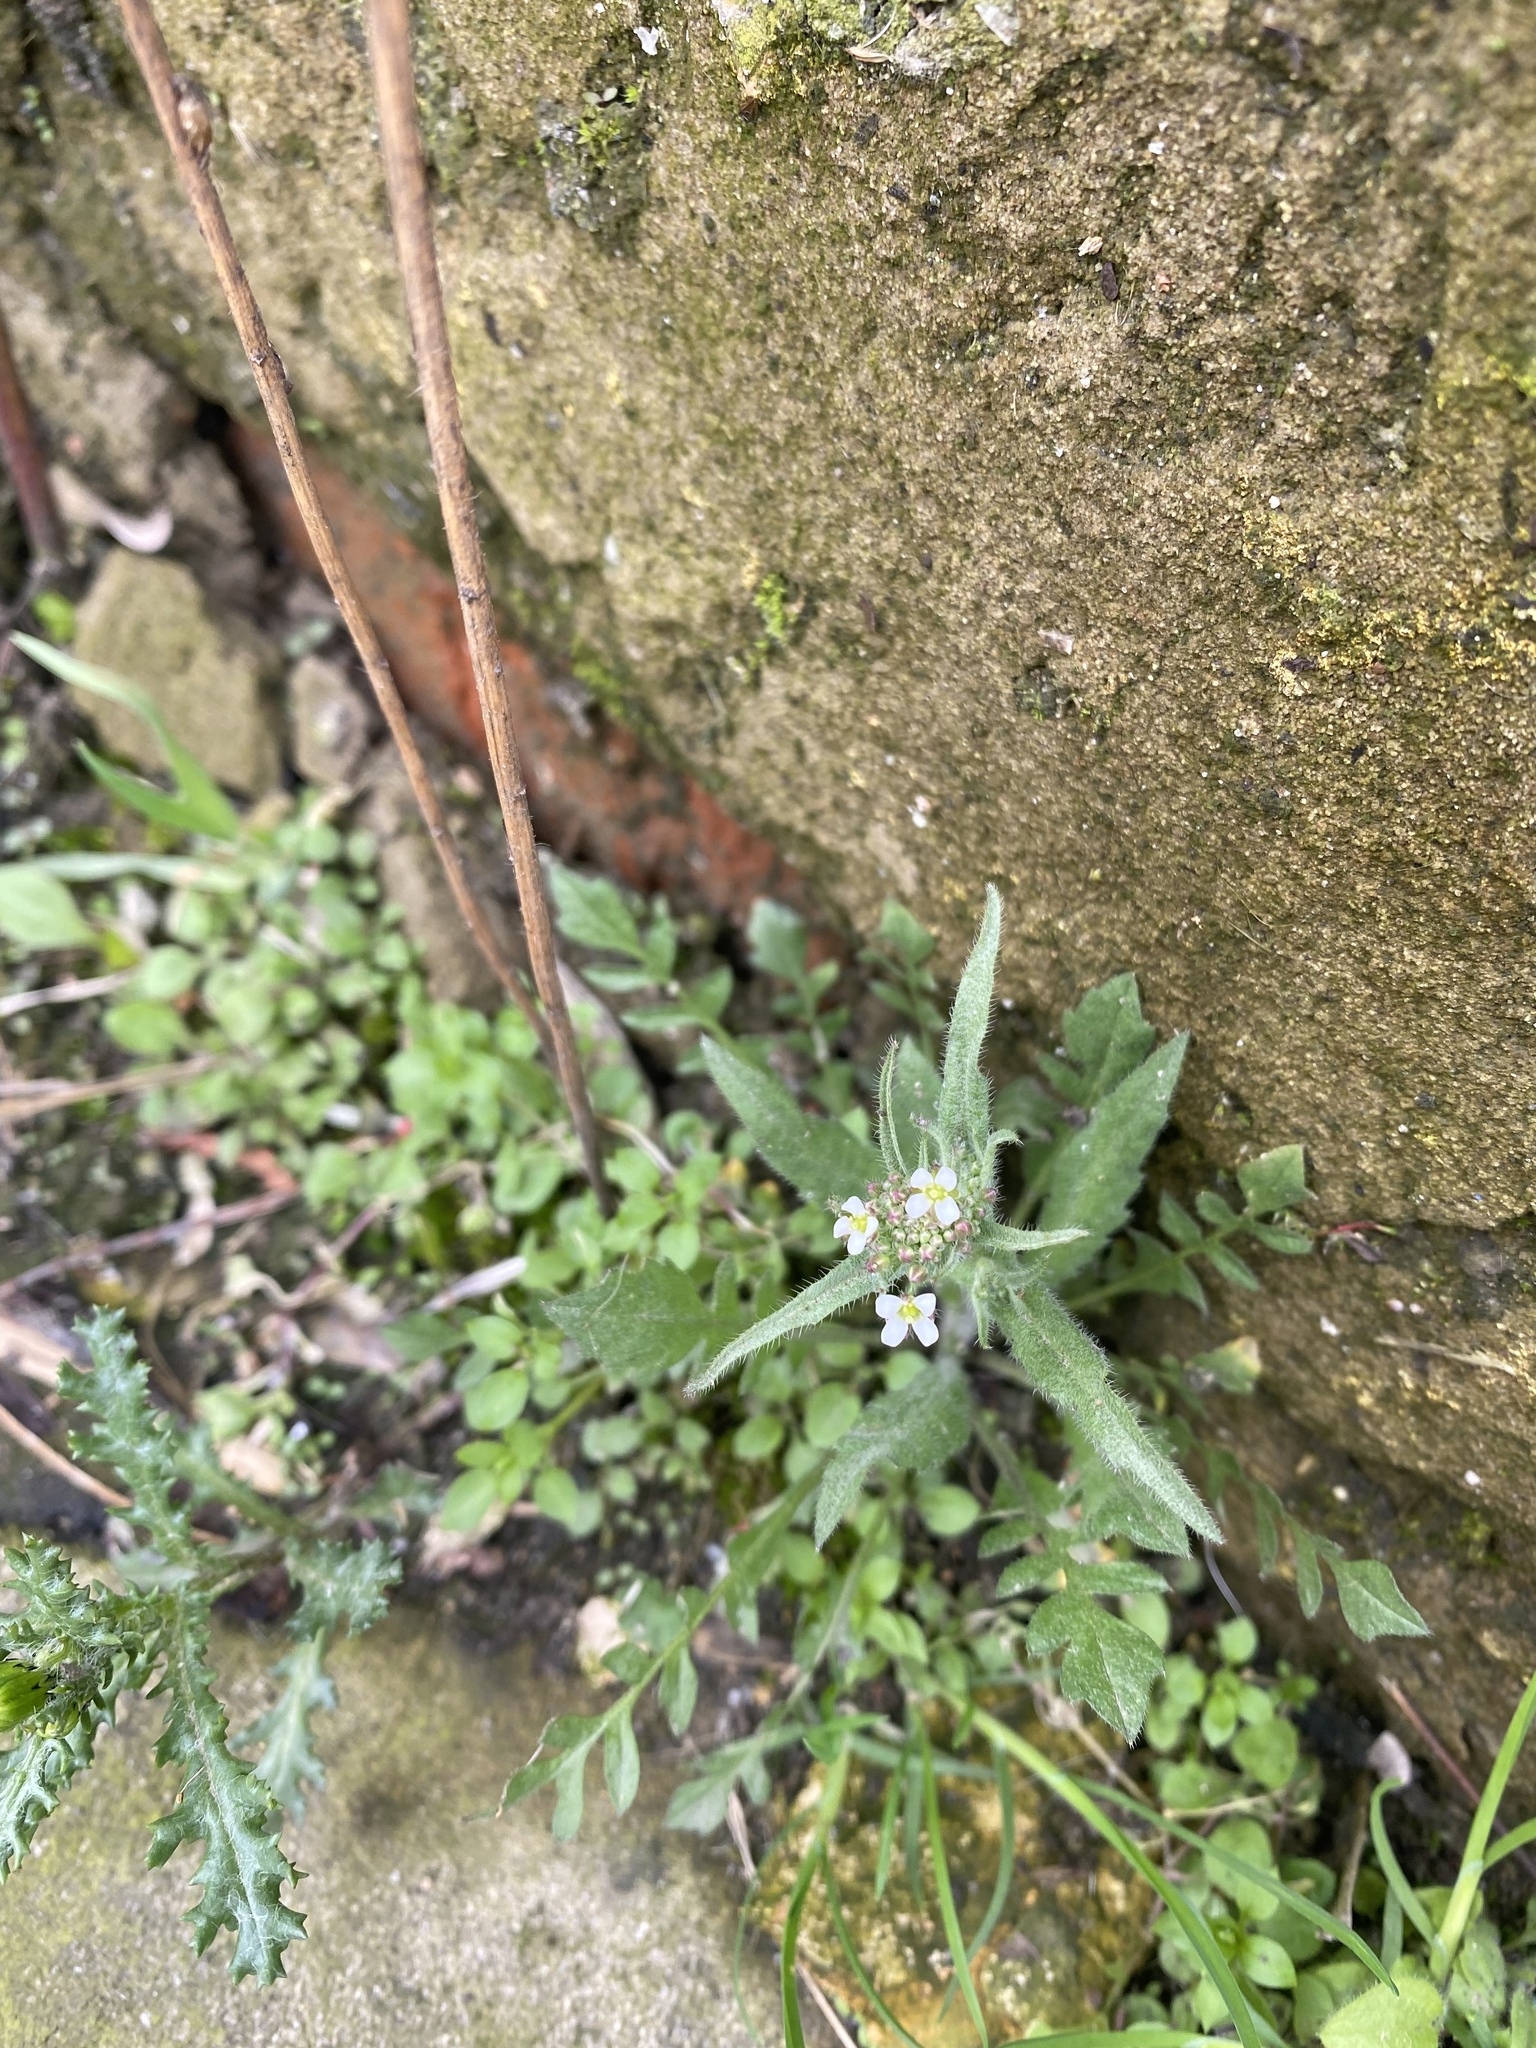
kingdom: Plantae
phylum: Tracheophyta
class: Magnoliopsida
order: Brassicales
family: Brassicaceae
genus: Capsella
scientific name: Capsella bursa-pastoris
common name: Shepherd's purse
